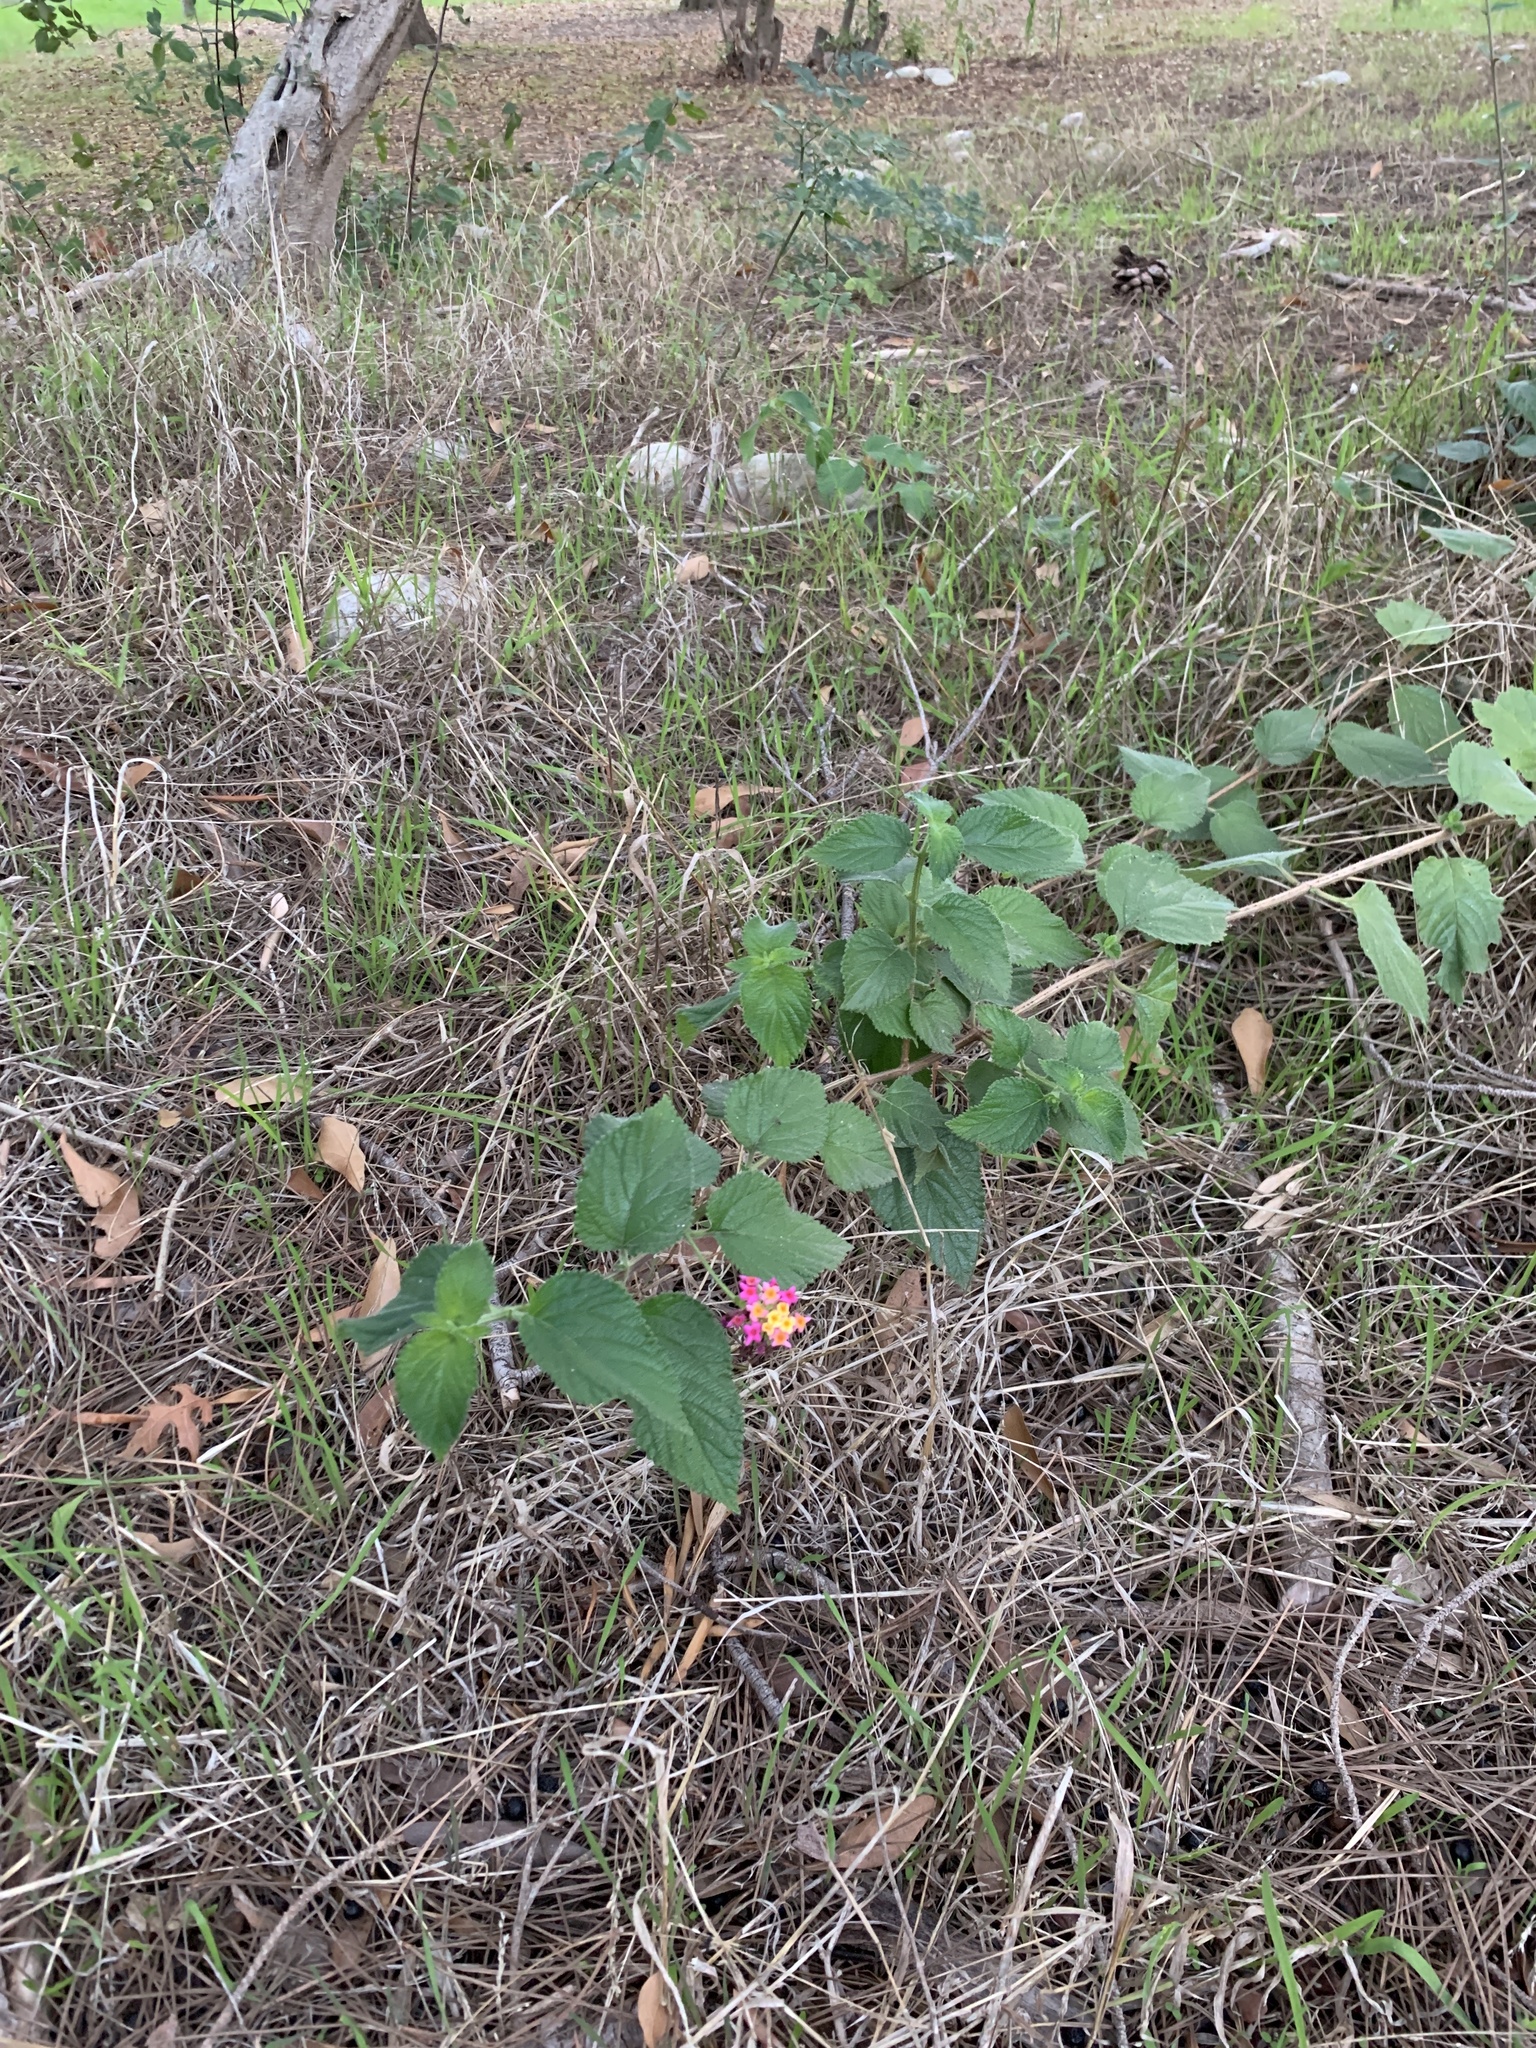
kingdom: Plantae
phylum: Tracheophyta
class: Magnoliopsida
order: Lamiales
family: Verbenaceae
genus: Lantana
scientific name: Lantana camara
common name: Lantana
